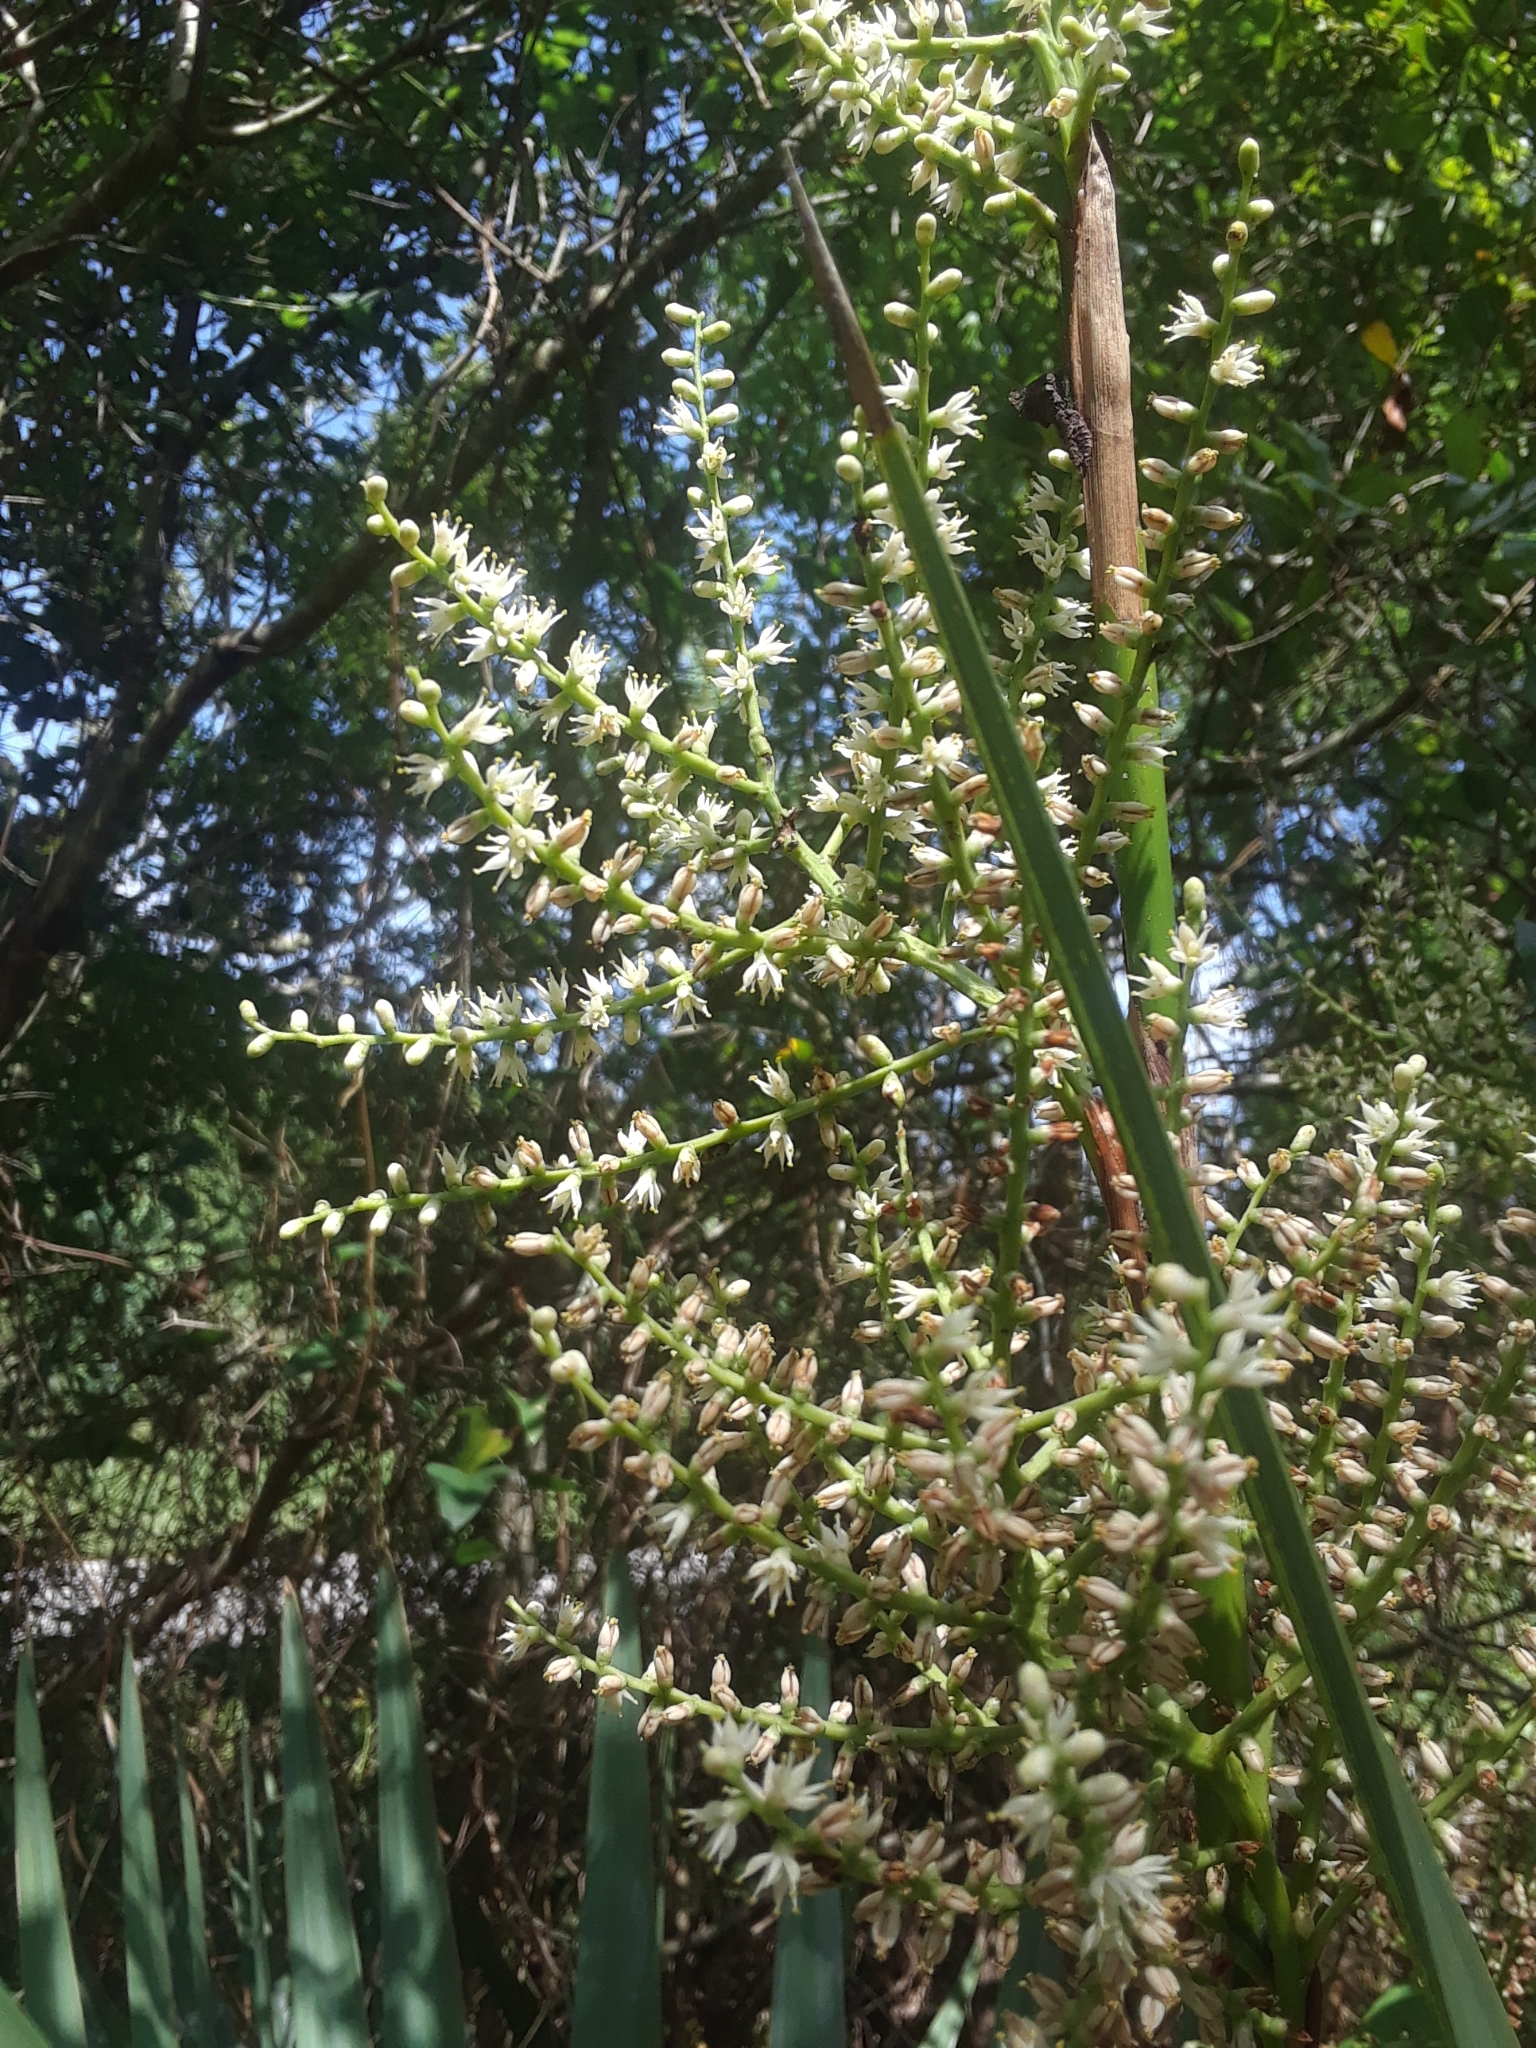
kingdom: Plantae
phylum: Tracheophyta
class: Liliopsida
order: Arecales
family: Arecaceae
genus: Sabal
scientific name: Sabal minor
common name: Dwarf palmetto
